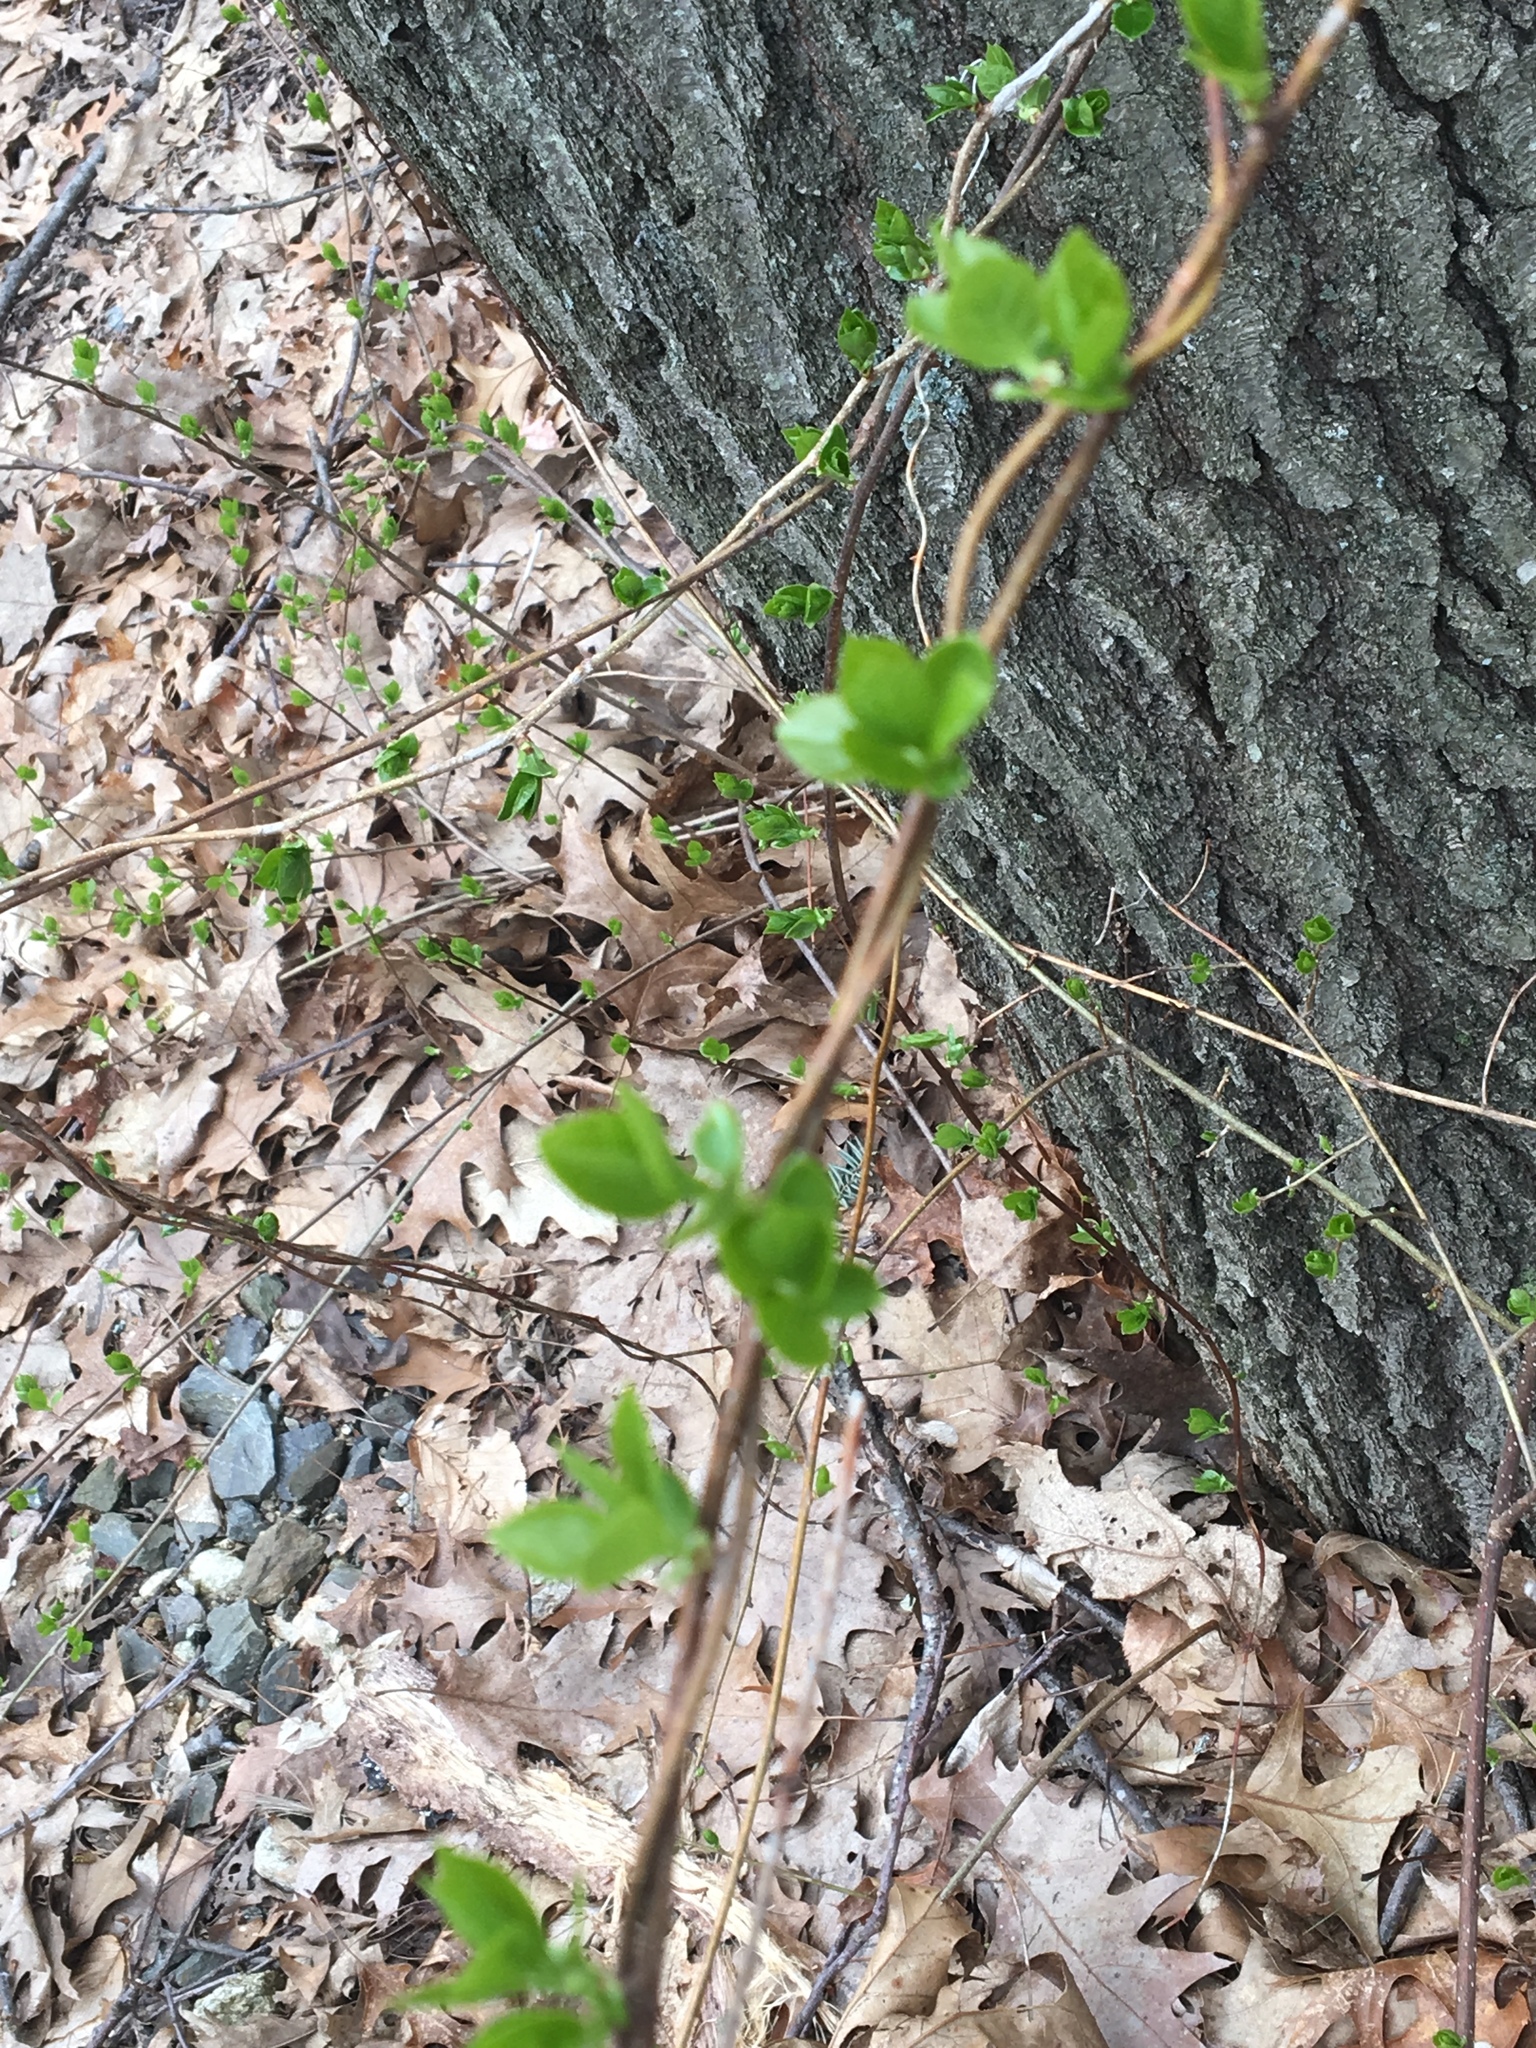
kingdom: Plantae
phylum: Tracheophyta
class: Magnoliopsida
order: Celastrales
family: Celastraceae
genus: Celastrus
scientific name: Celastrus orbiculatus
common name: Oriental bittersweet
